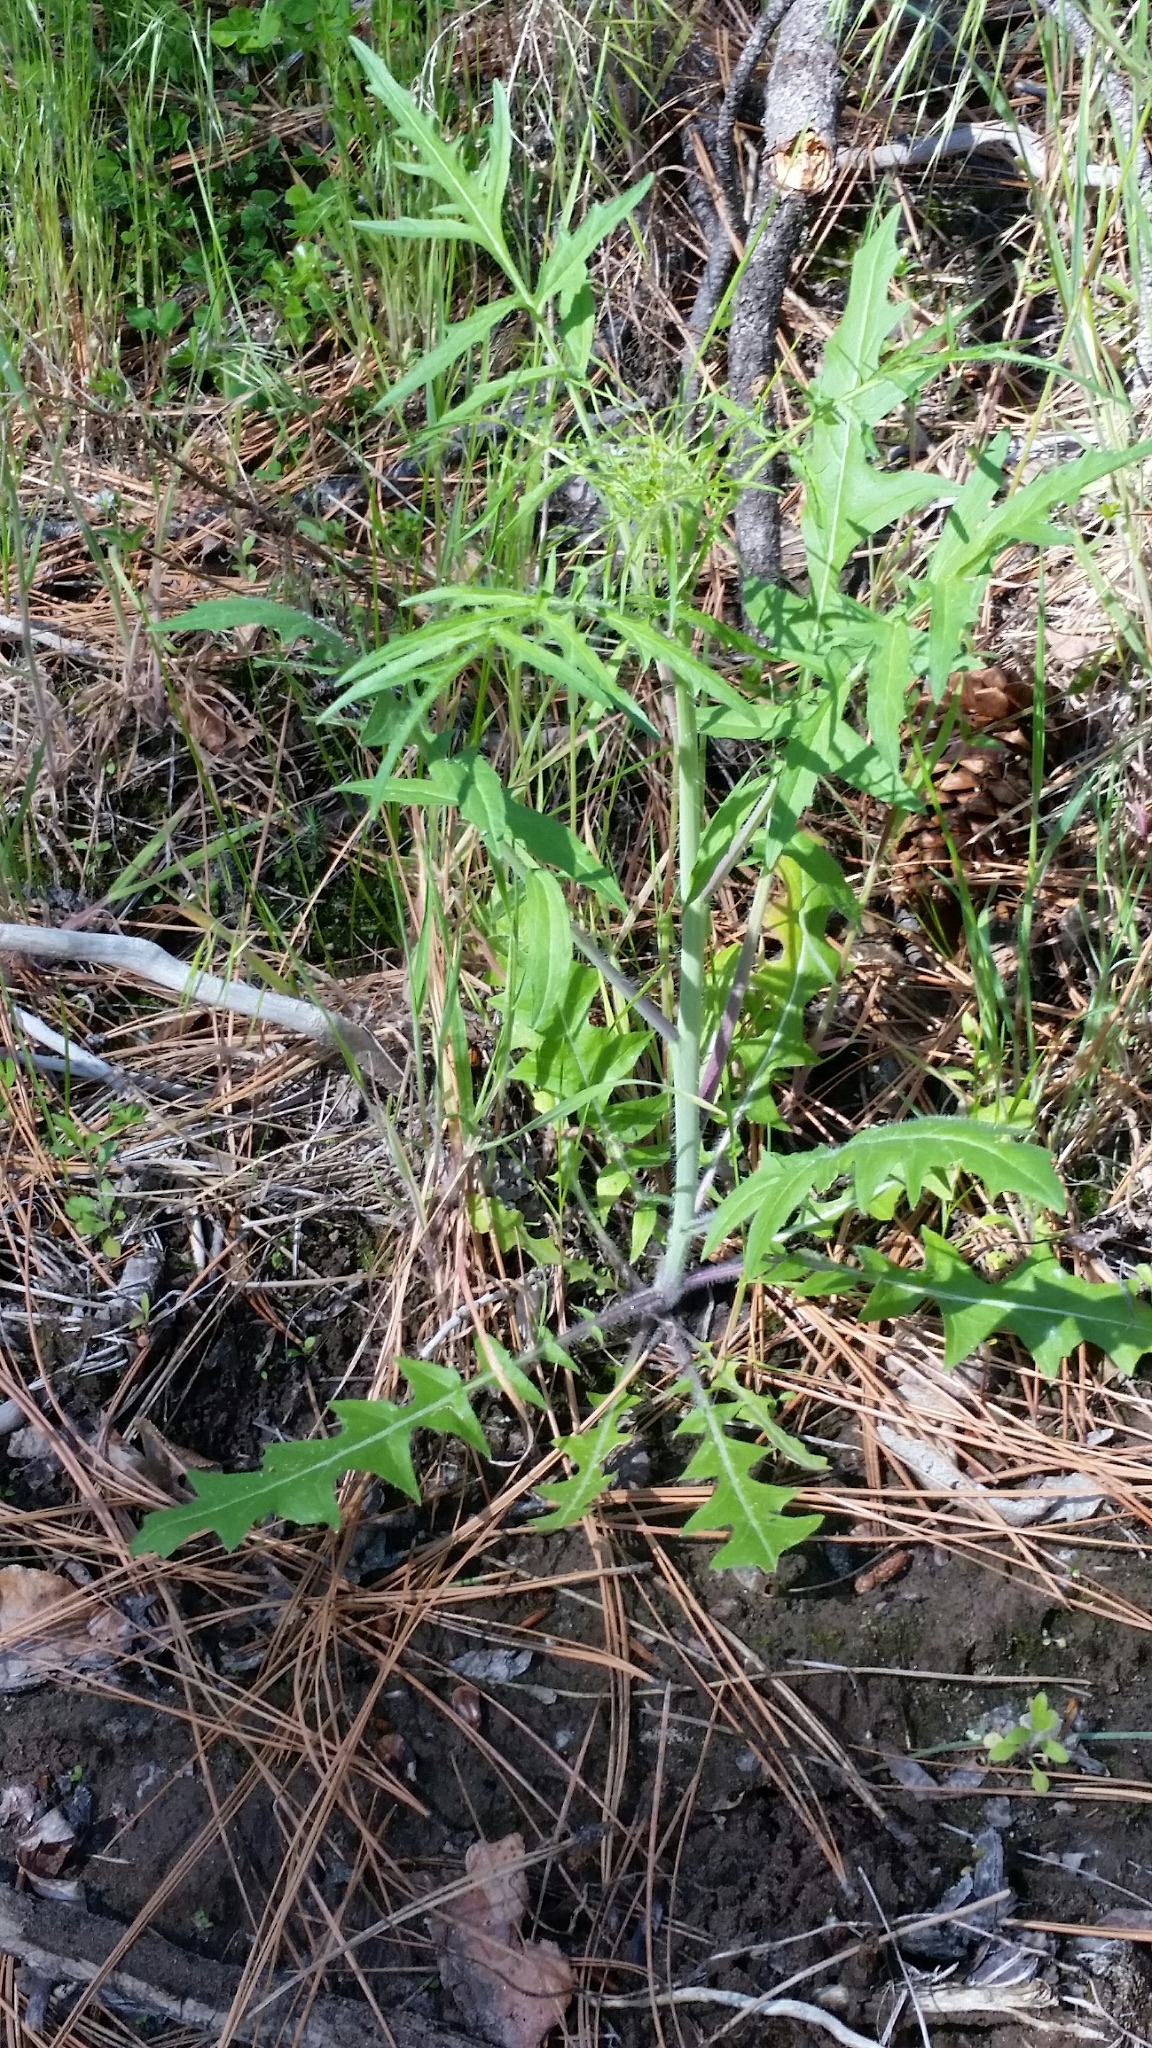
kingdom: Plantae
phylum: Tracheophyta
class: Magnoliopsida
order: Brassicales
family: Brassicaceae
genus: Sisymbrium
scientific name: Sisymbrium altissimum
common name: Tall rocket
